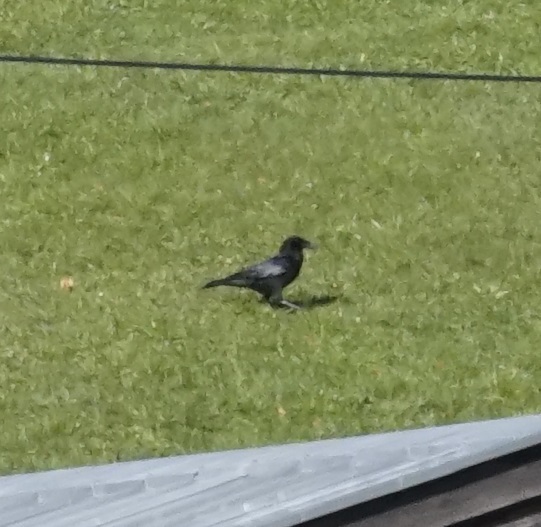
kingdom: Animalia
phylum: Chordata
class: Aves
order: Passeriformes
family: Corvidae
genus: Corvus
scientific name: Corvus corone
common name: Carrion crow
